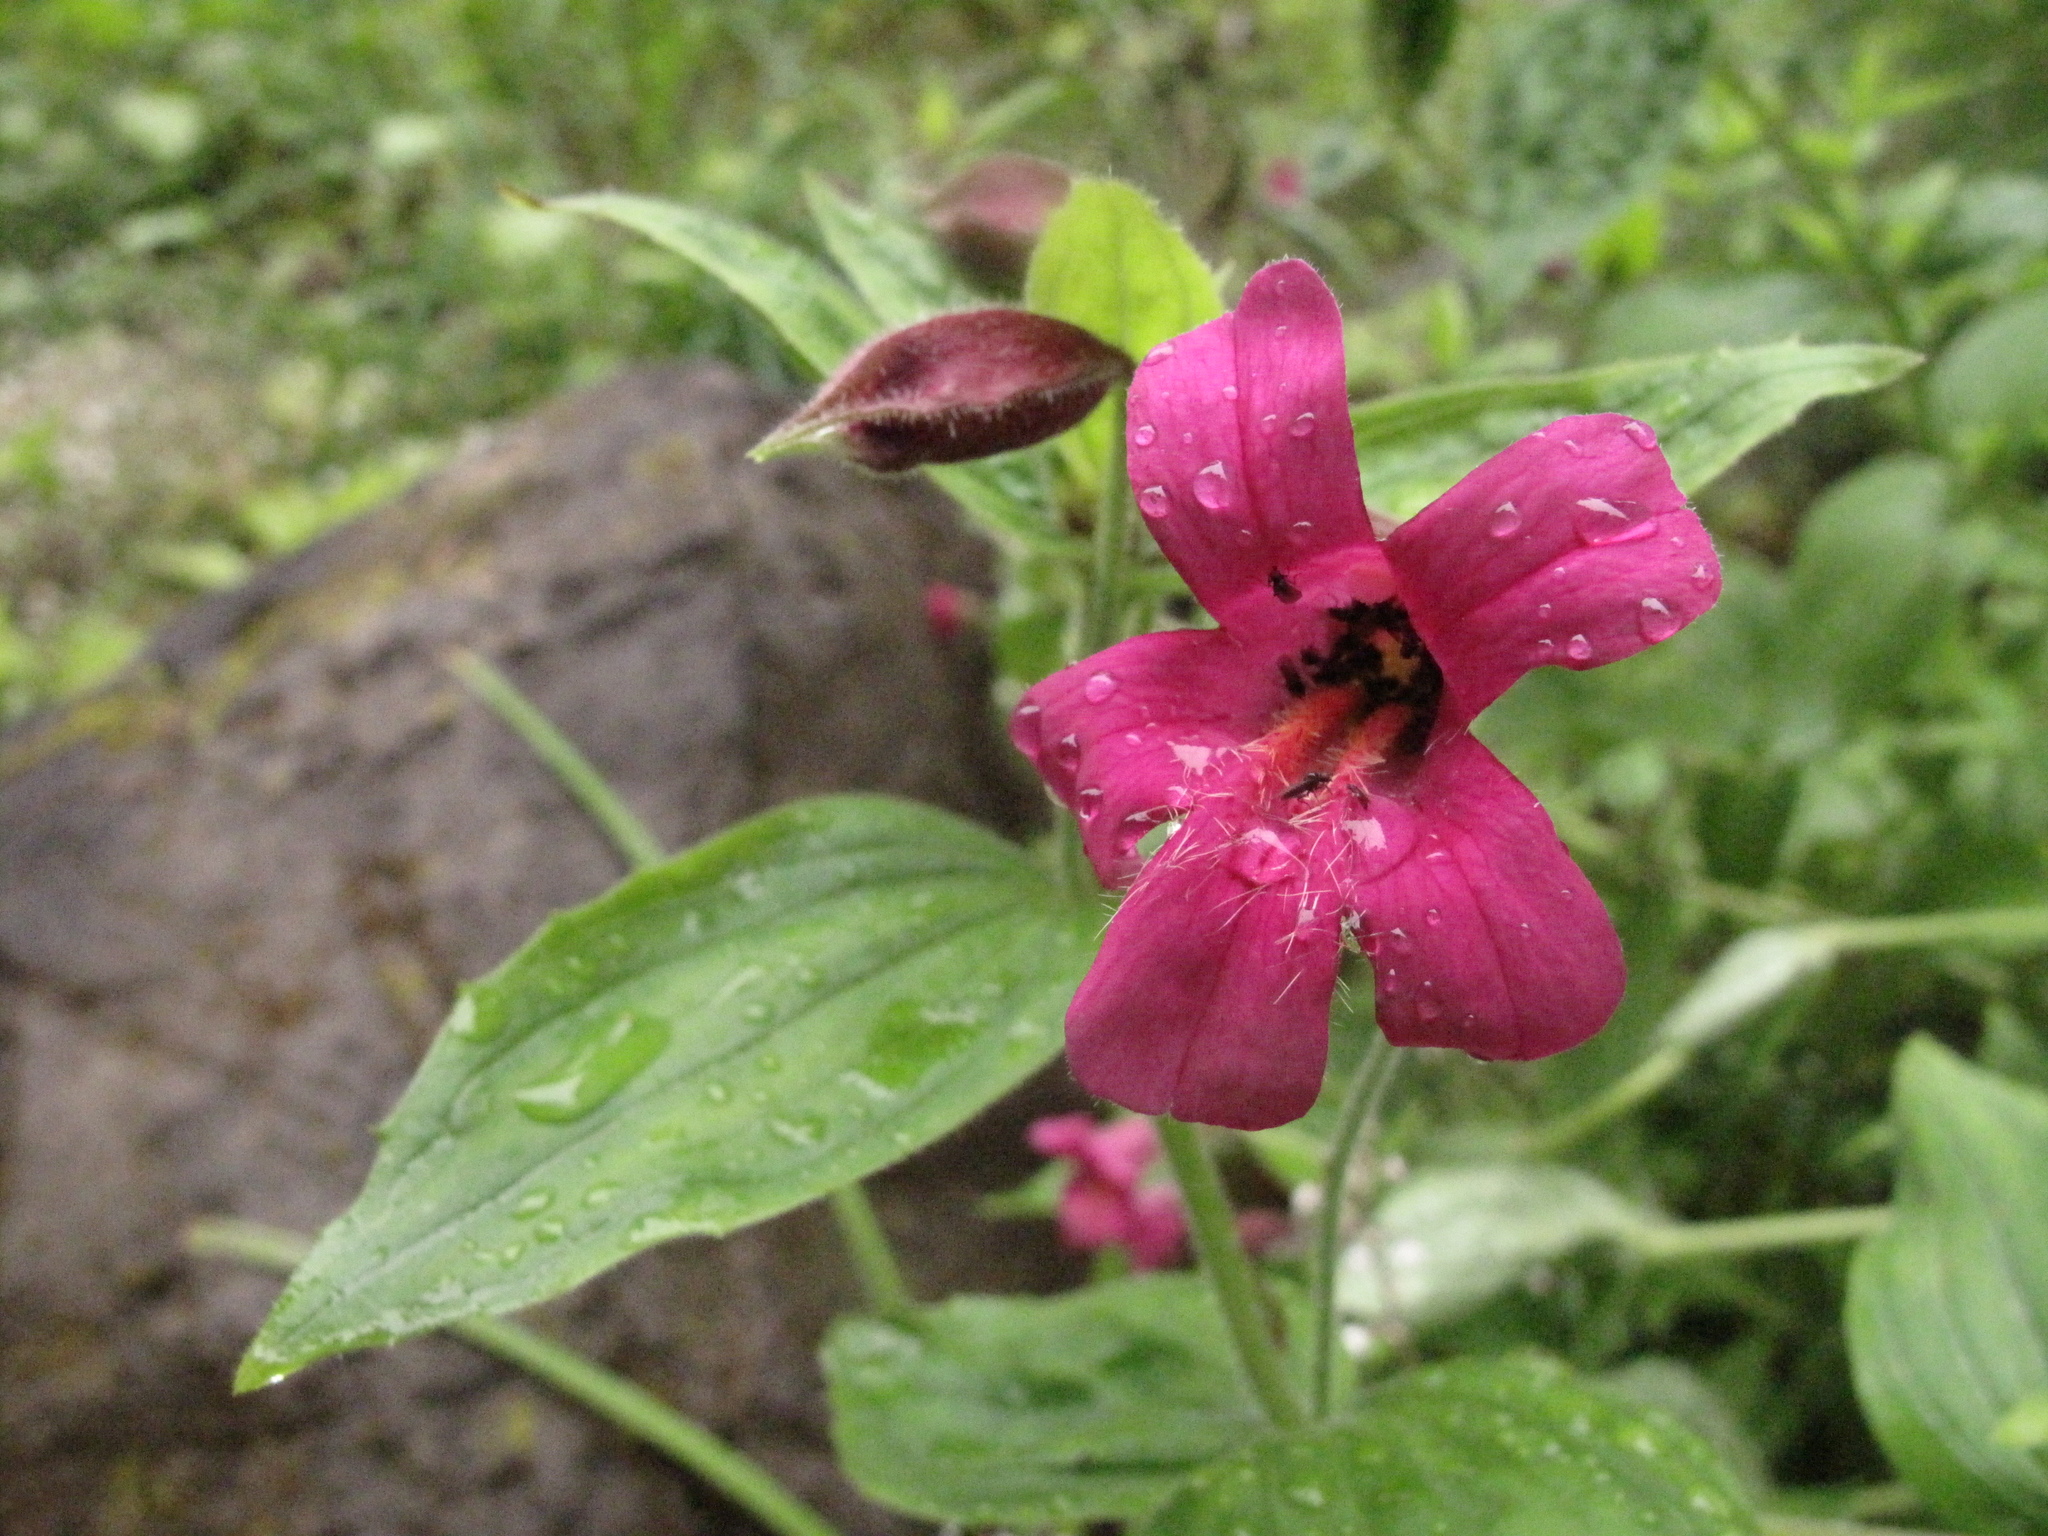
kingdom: Plantae
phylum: Tracheophyta
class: Magnoliopsida
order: Lamiales
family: Phrymaceae
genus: Erythranthe
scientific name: Erythranthe lewisii
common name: Lewis's monkey-flower
